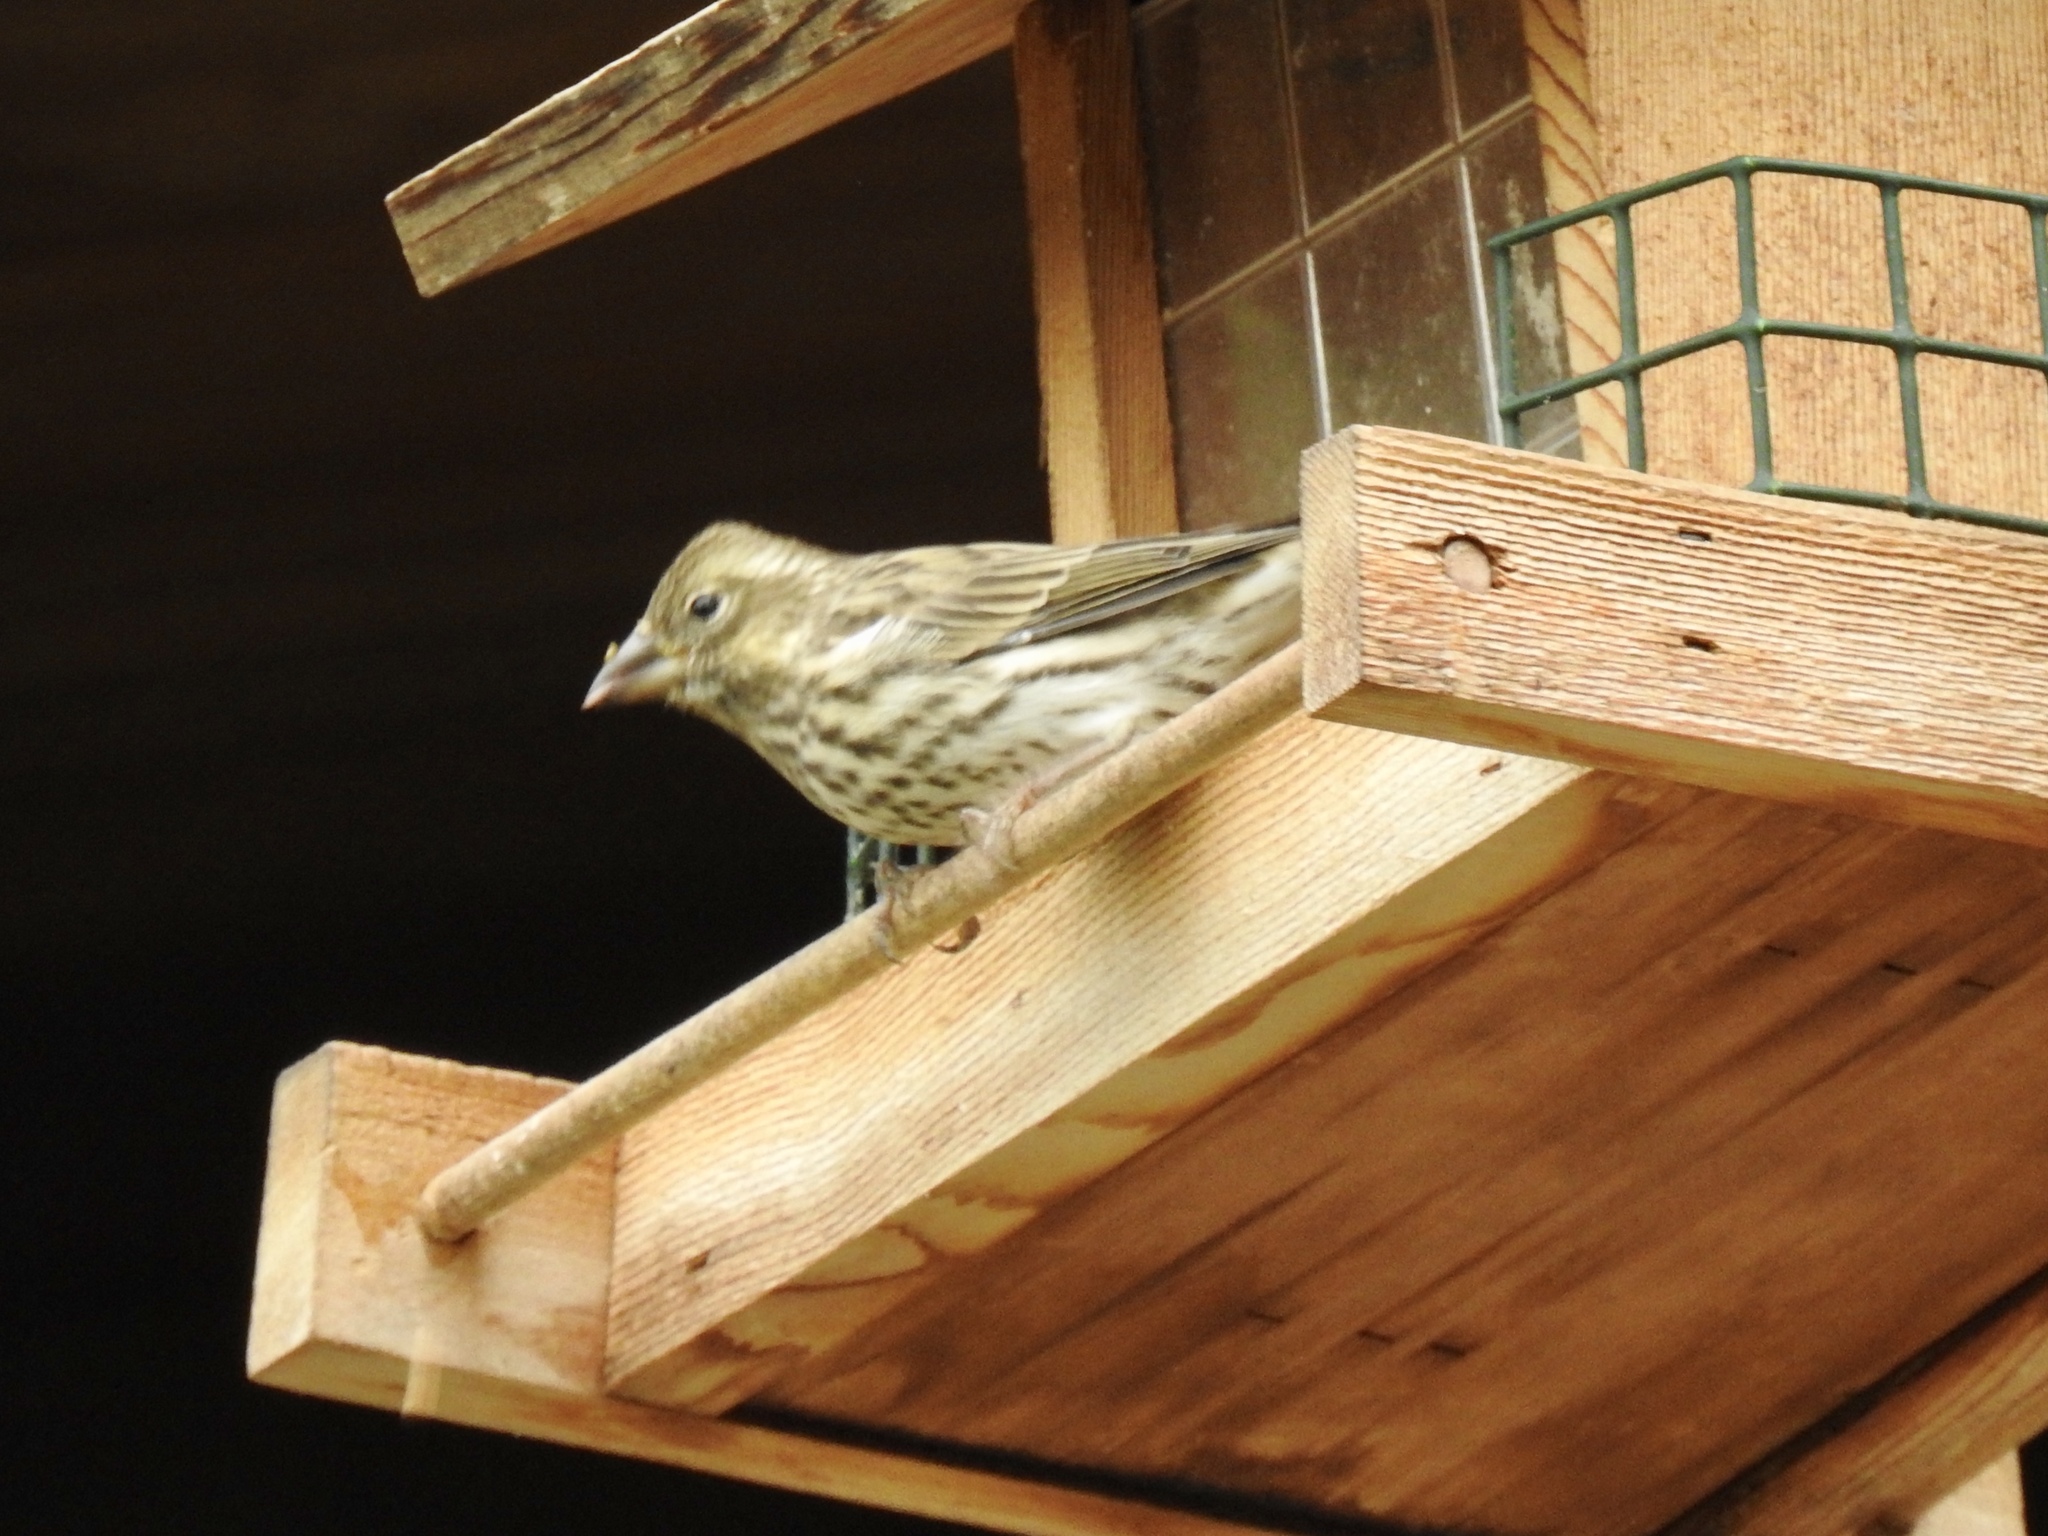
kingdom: Animalia
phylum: Chordata
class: Aves
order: Passeriformes
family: Fringillidae
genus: Haemorhous
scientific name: Haemorhous cassinii
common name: Cassin's finch
